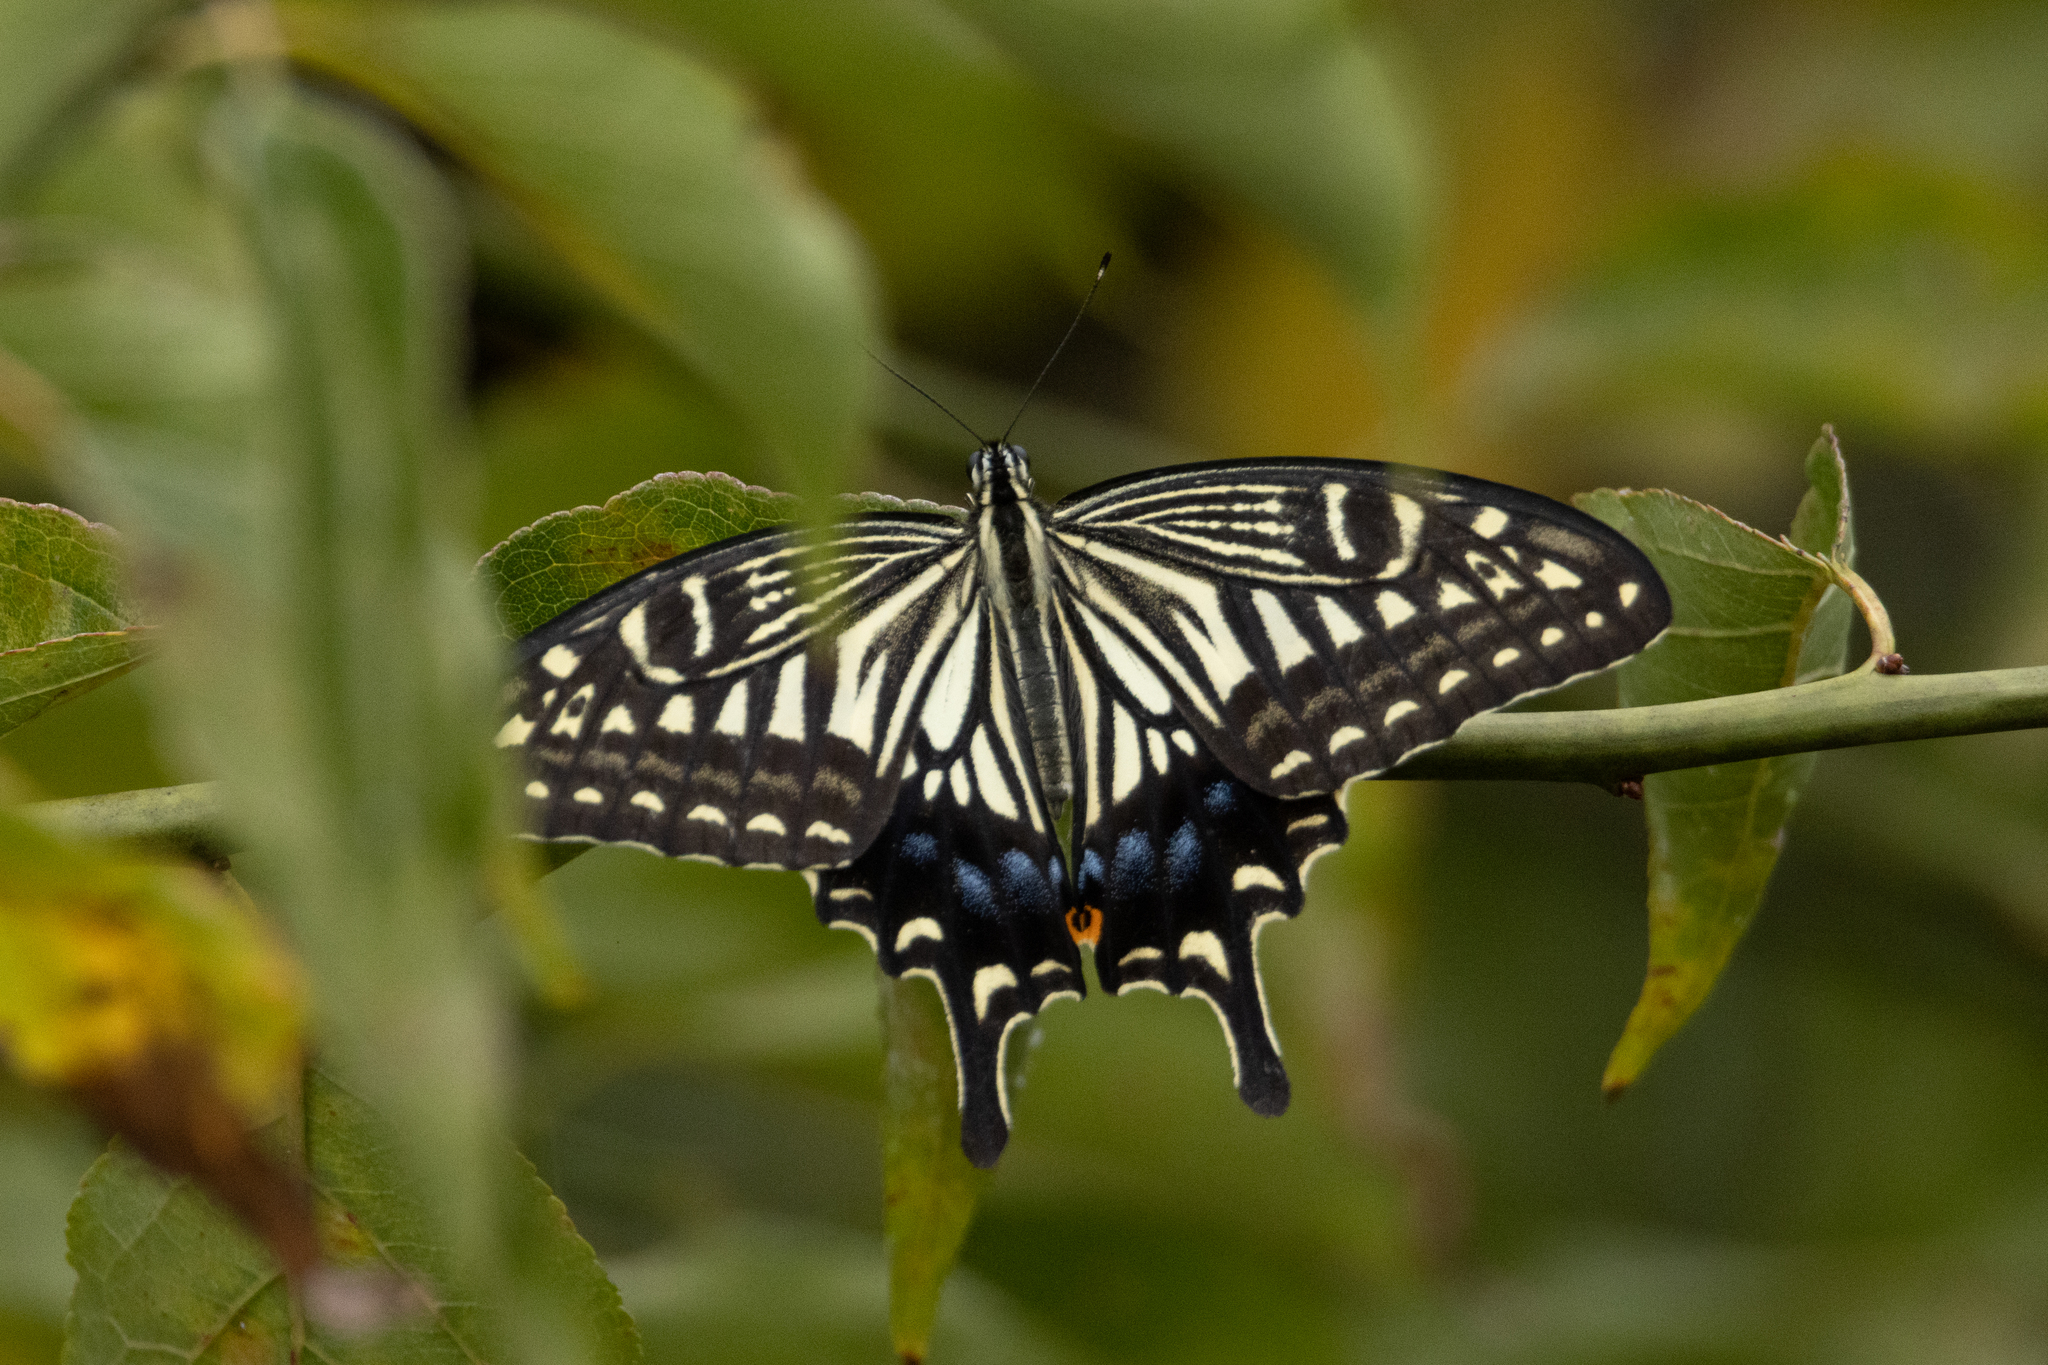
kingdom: Animalia
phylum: Arthropoda
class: Insecta
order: Lepidoptera
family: Papilionidae
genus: Papilio
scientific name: Papilio xuthus
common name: Asian swallowtail
